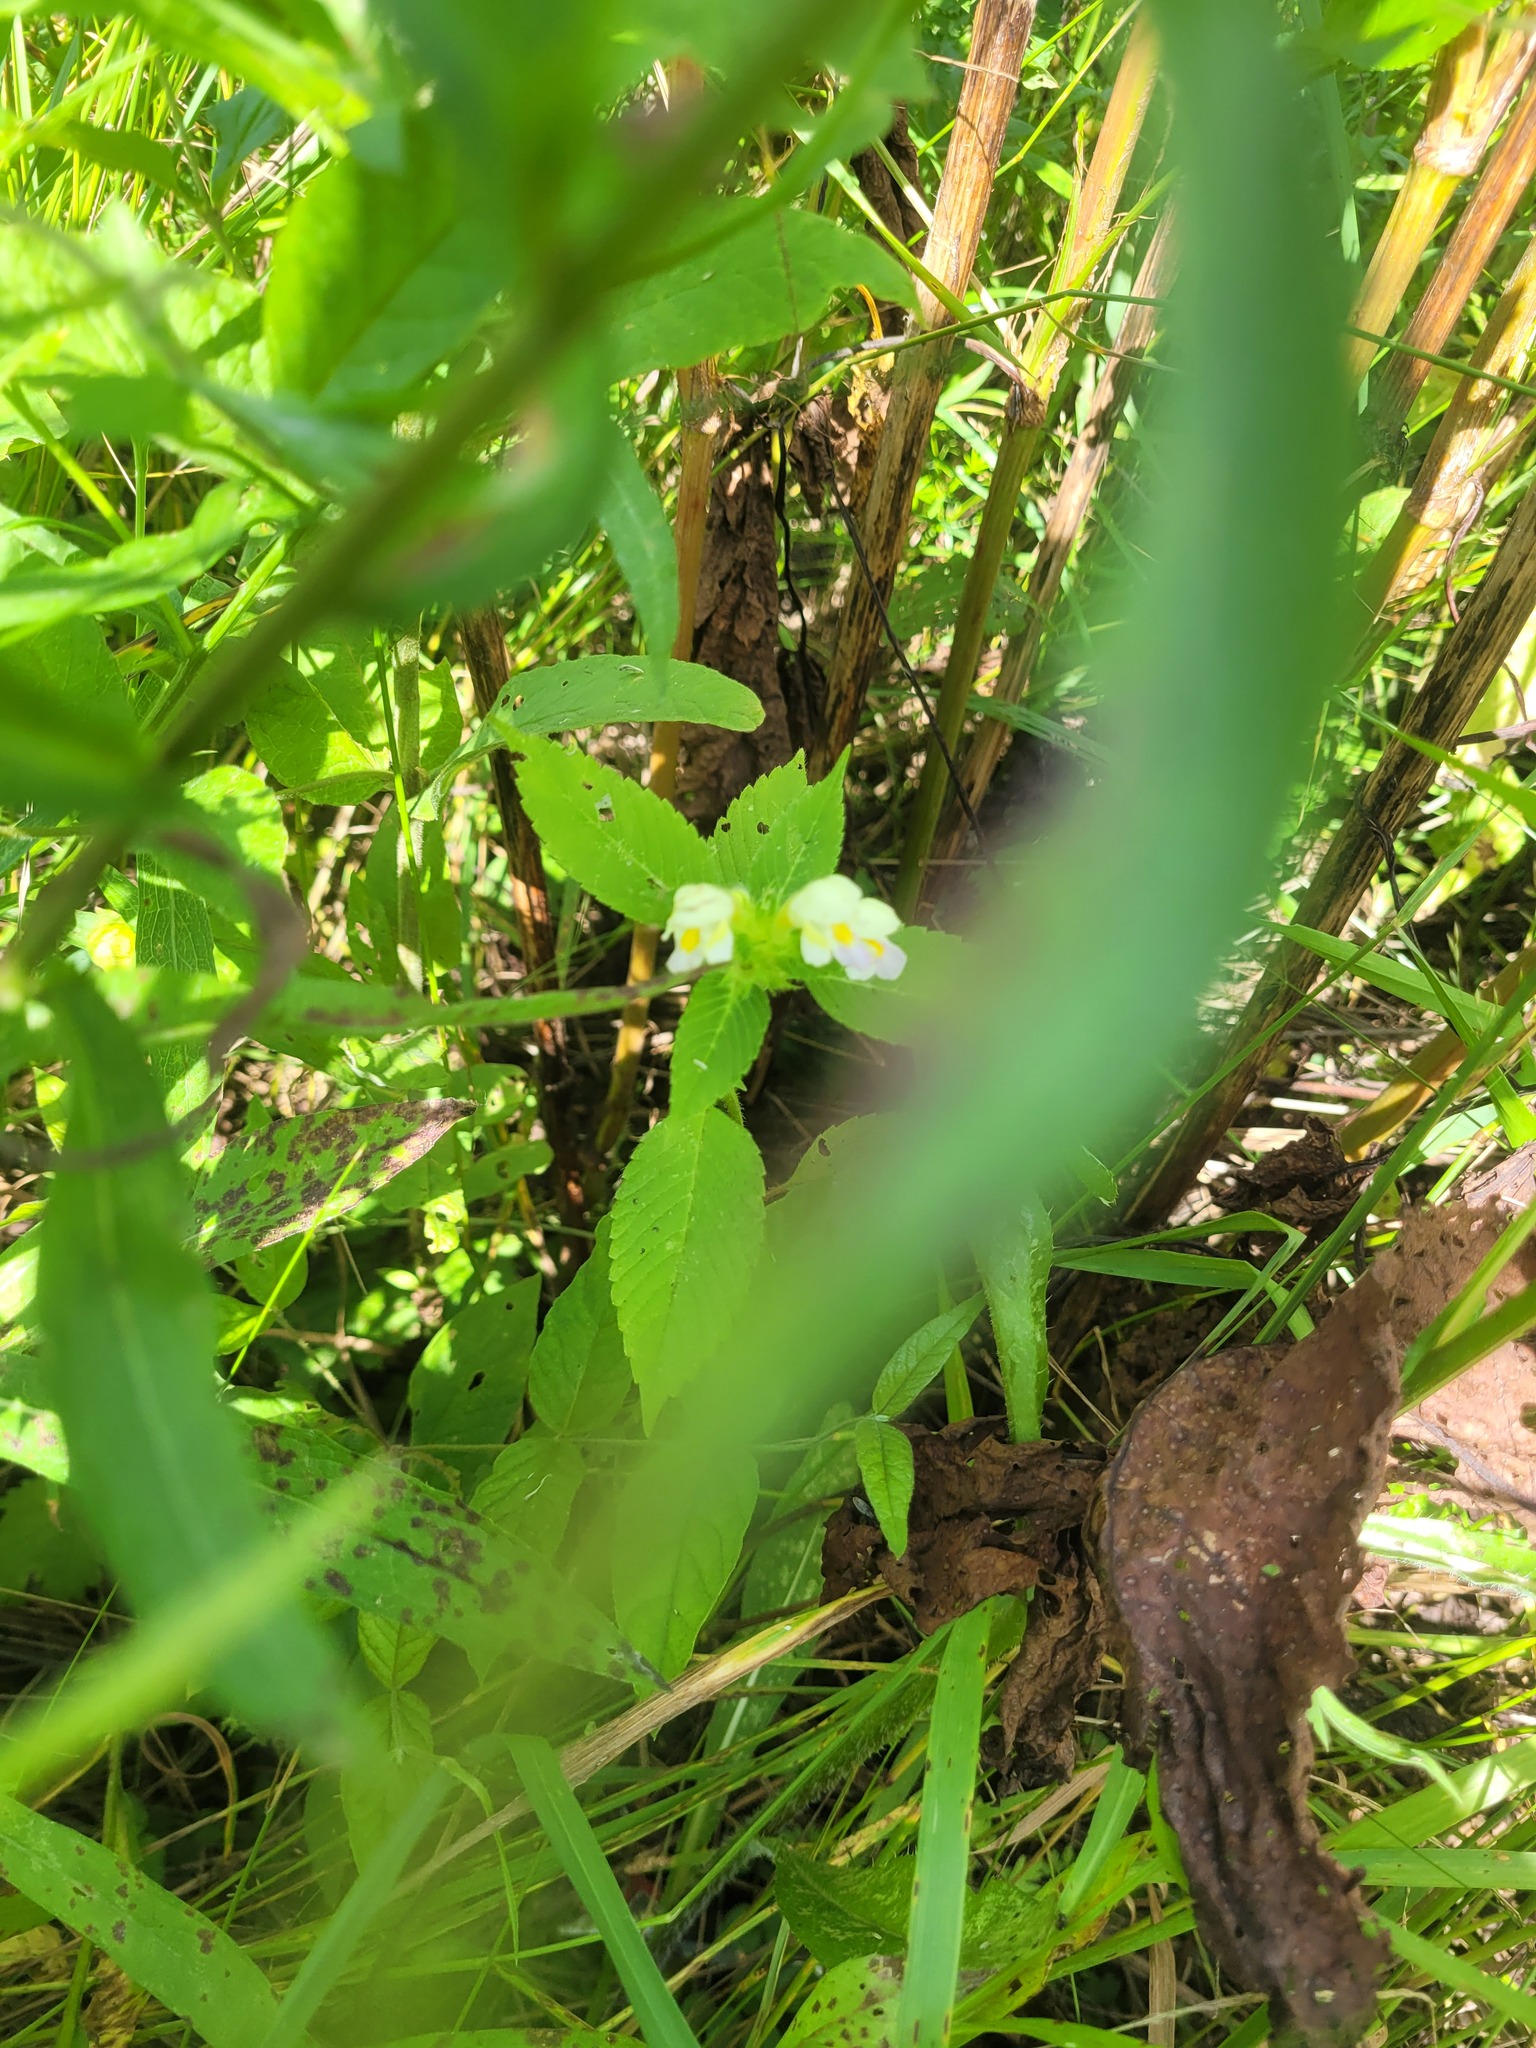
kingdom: Plantae
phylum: Tracheophyta
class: Magnoliopsida
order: Lamiales
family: Lamiaceae
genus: Galeopsis
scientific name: Galeopsis speciosa
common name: Large-flowered hemp-nettle
